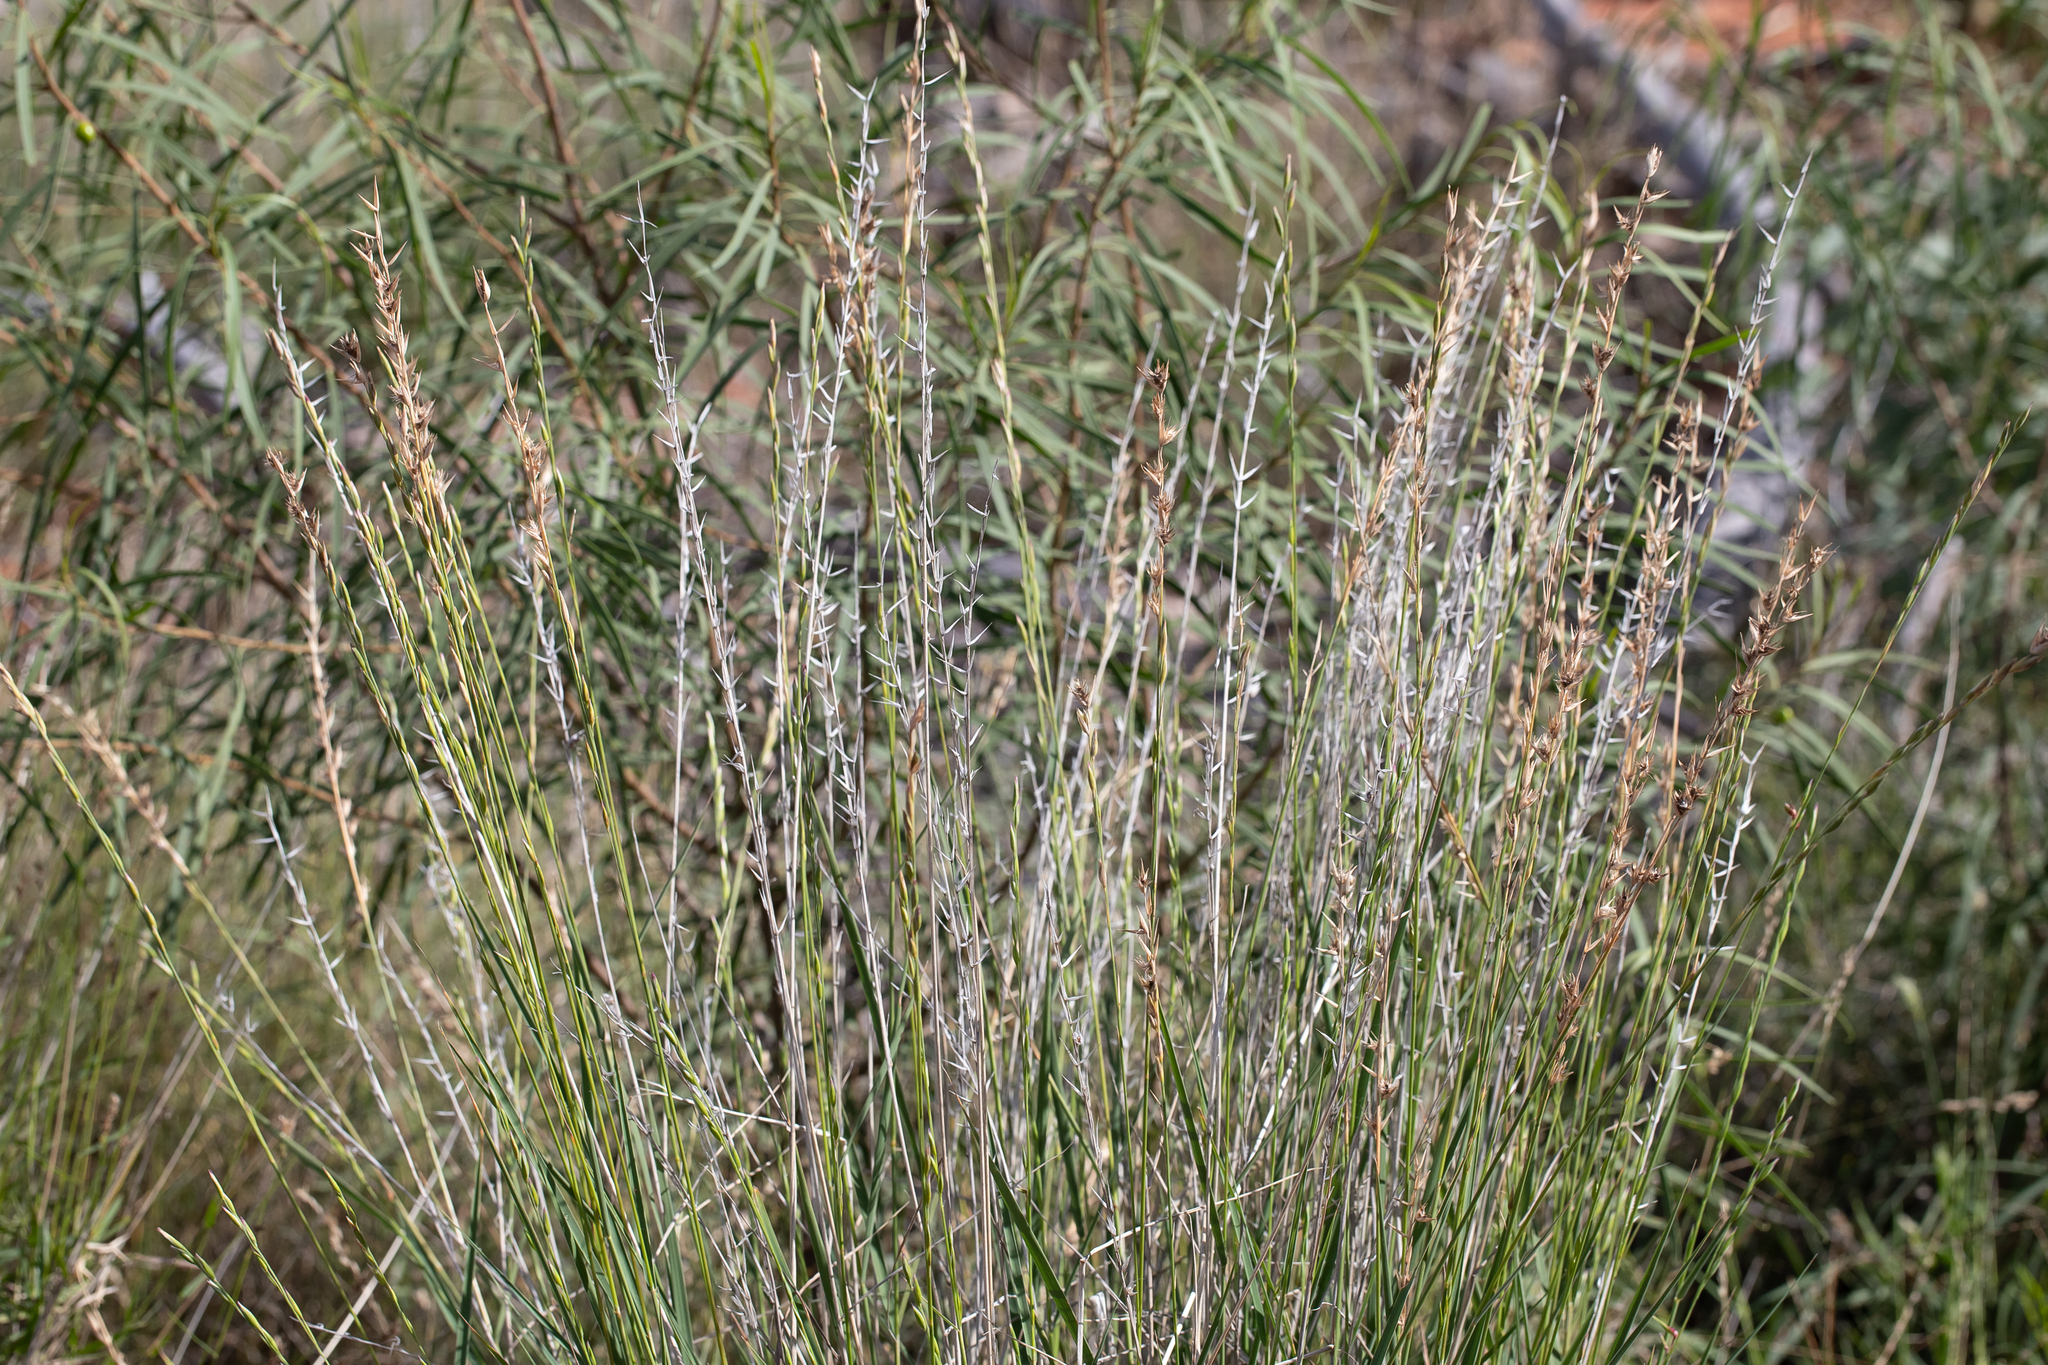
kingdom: Plantae
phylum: Tracheophyta
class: Liliopsida
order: Poales
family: Poaceae
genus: Monachather
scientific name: Monachather paradoxus
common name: Bandicoot grass
